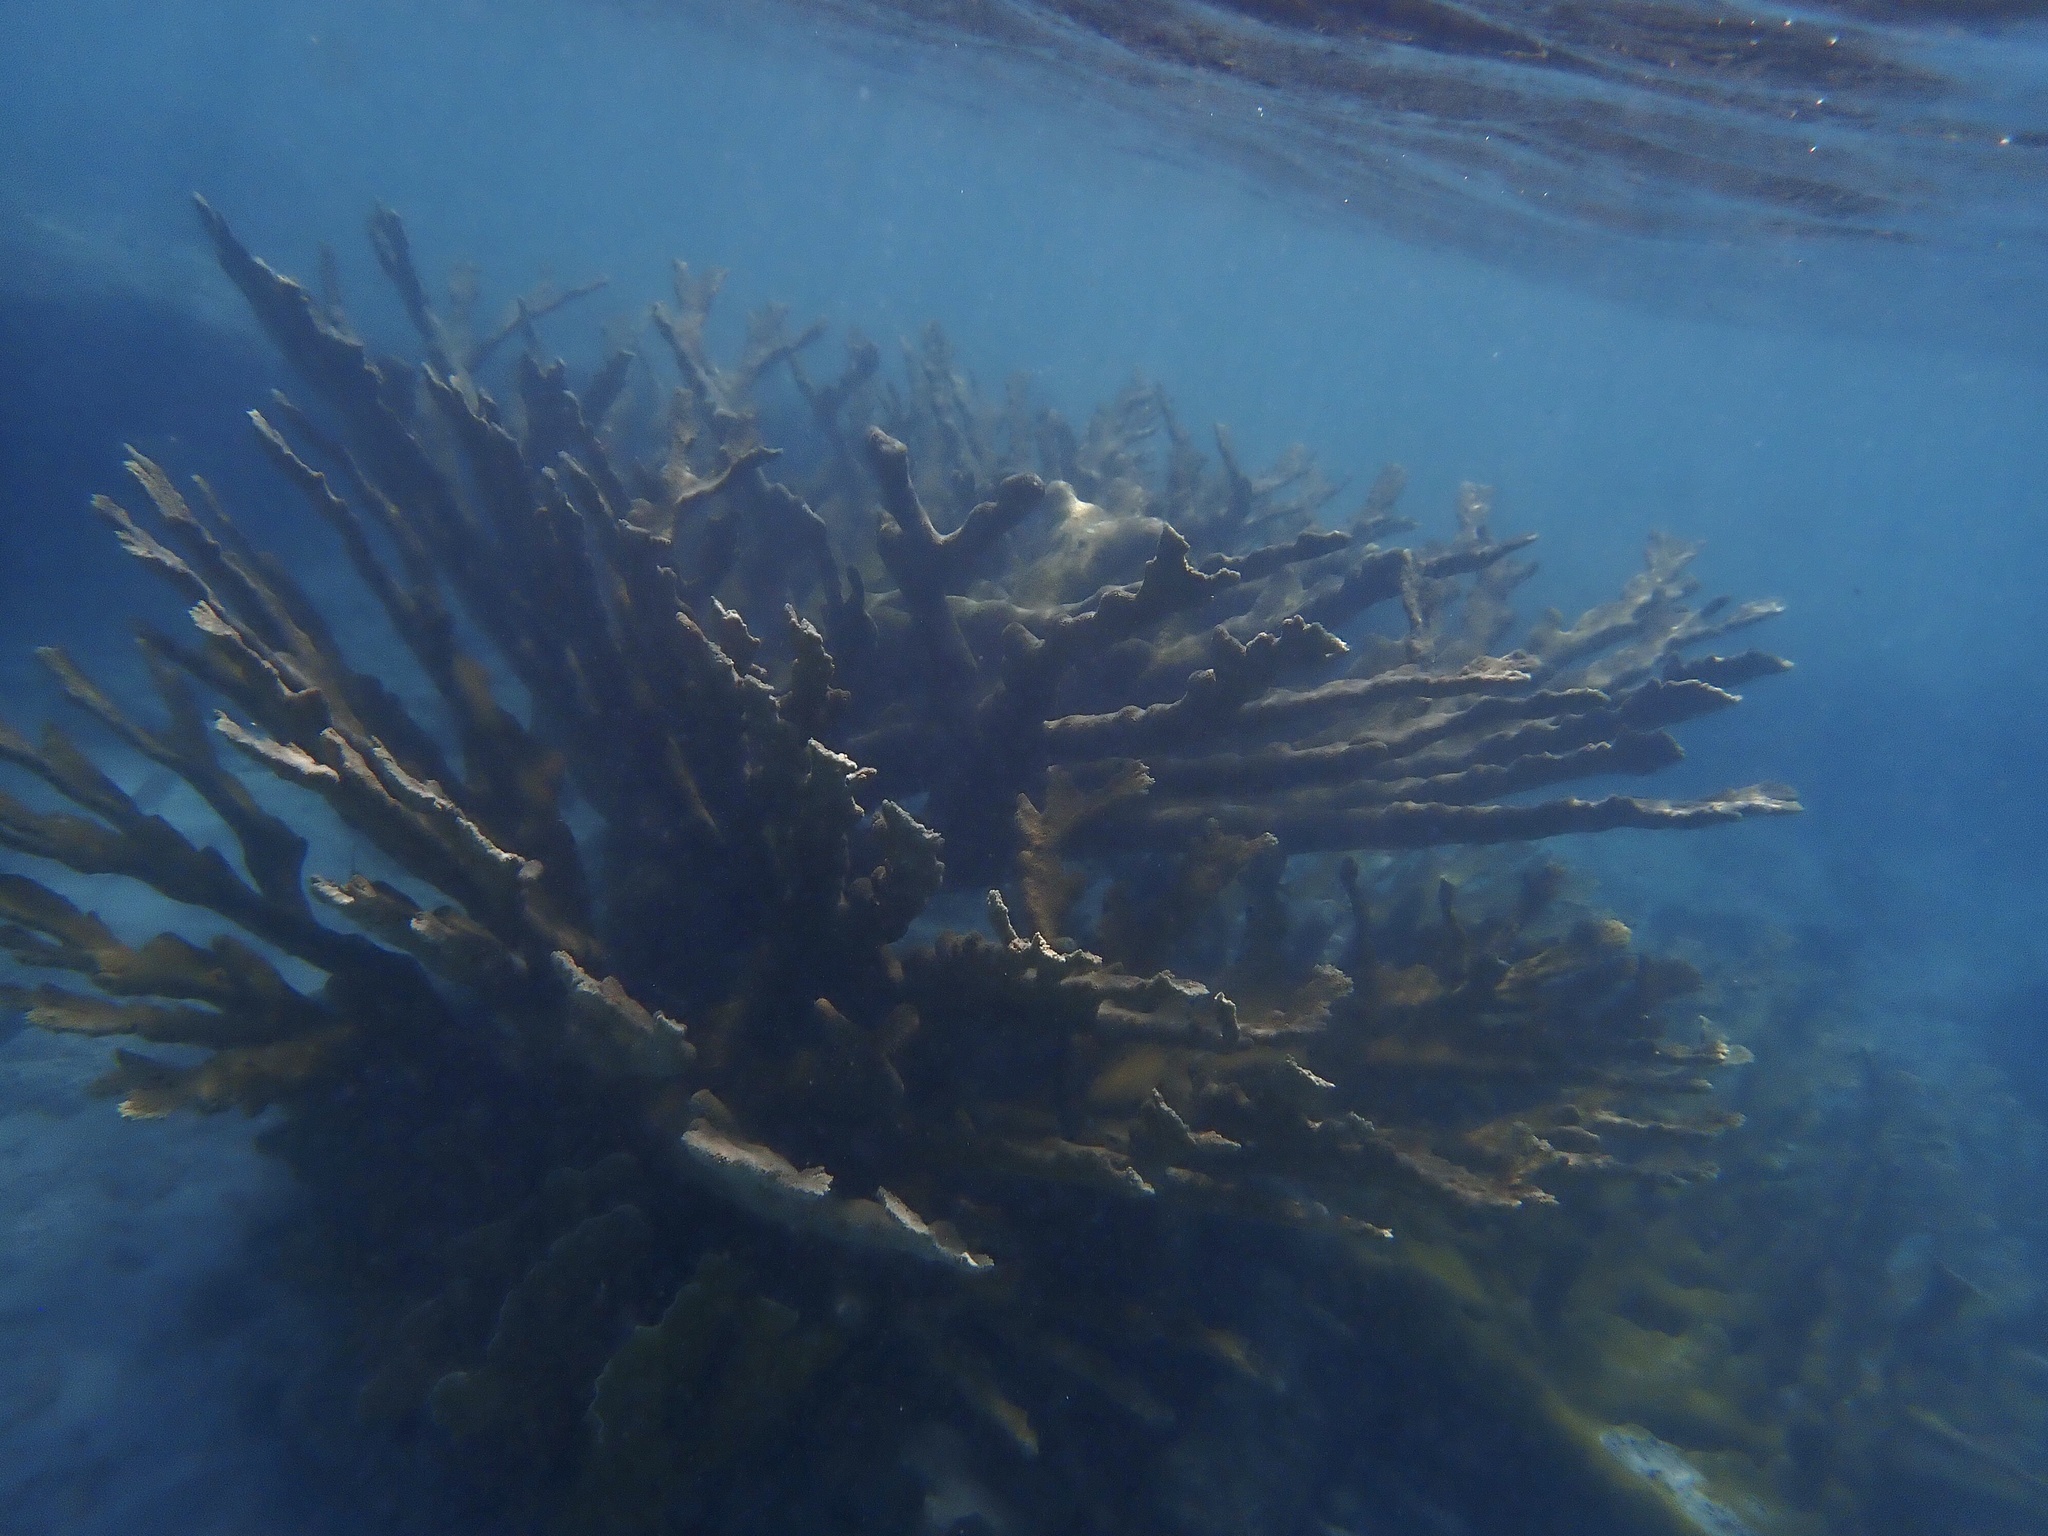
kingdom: Animalia
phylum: Cnidaria
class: Anthozoa
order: Scleractinia
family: Acroporidae
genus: Acropora
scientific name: Acropora palmata
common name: Elkhorn coral
